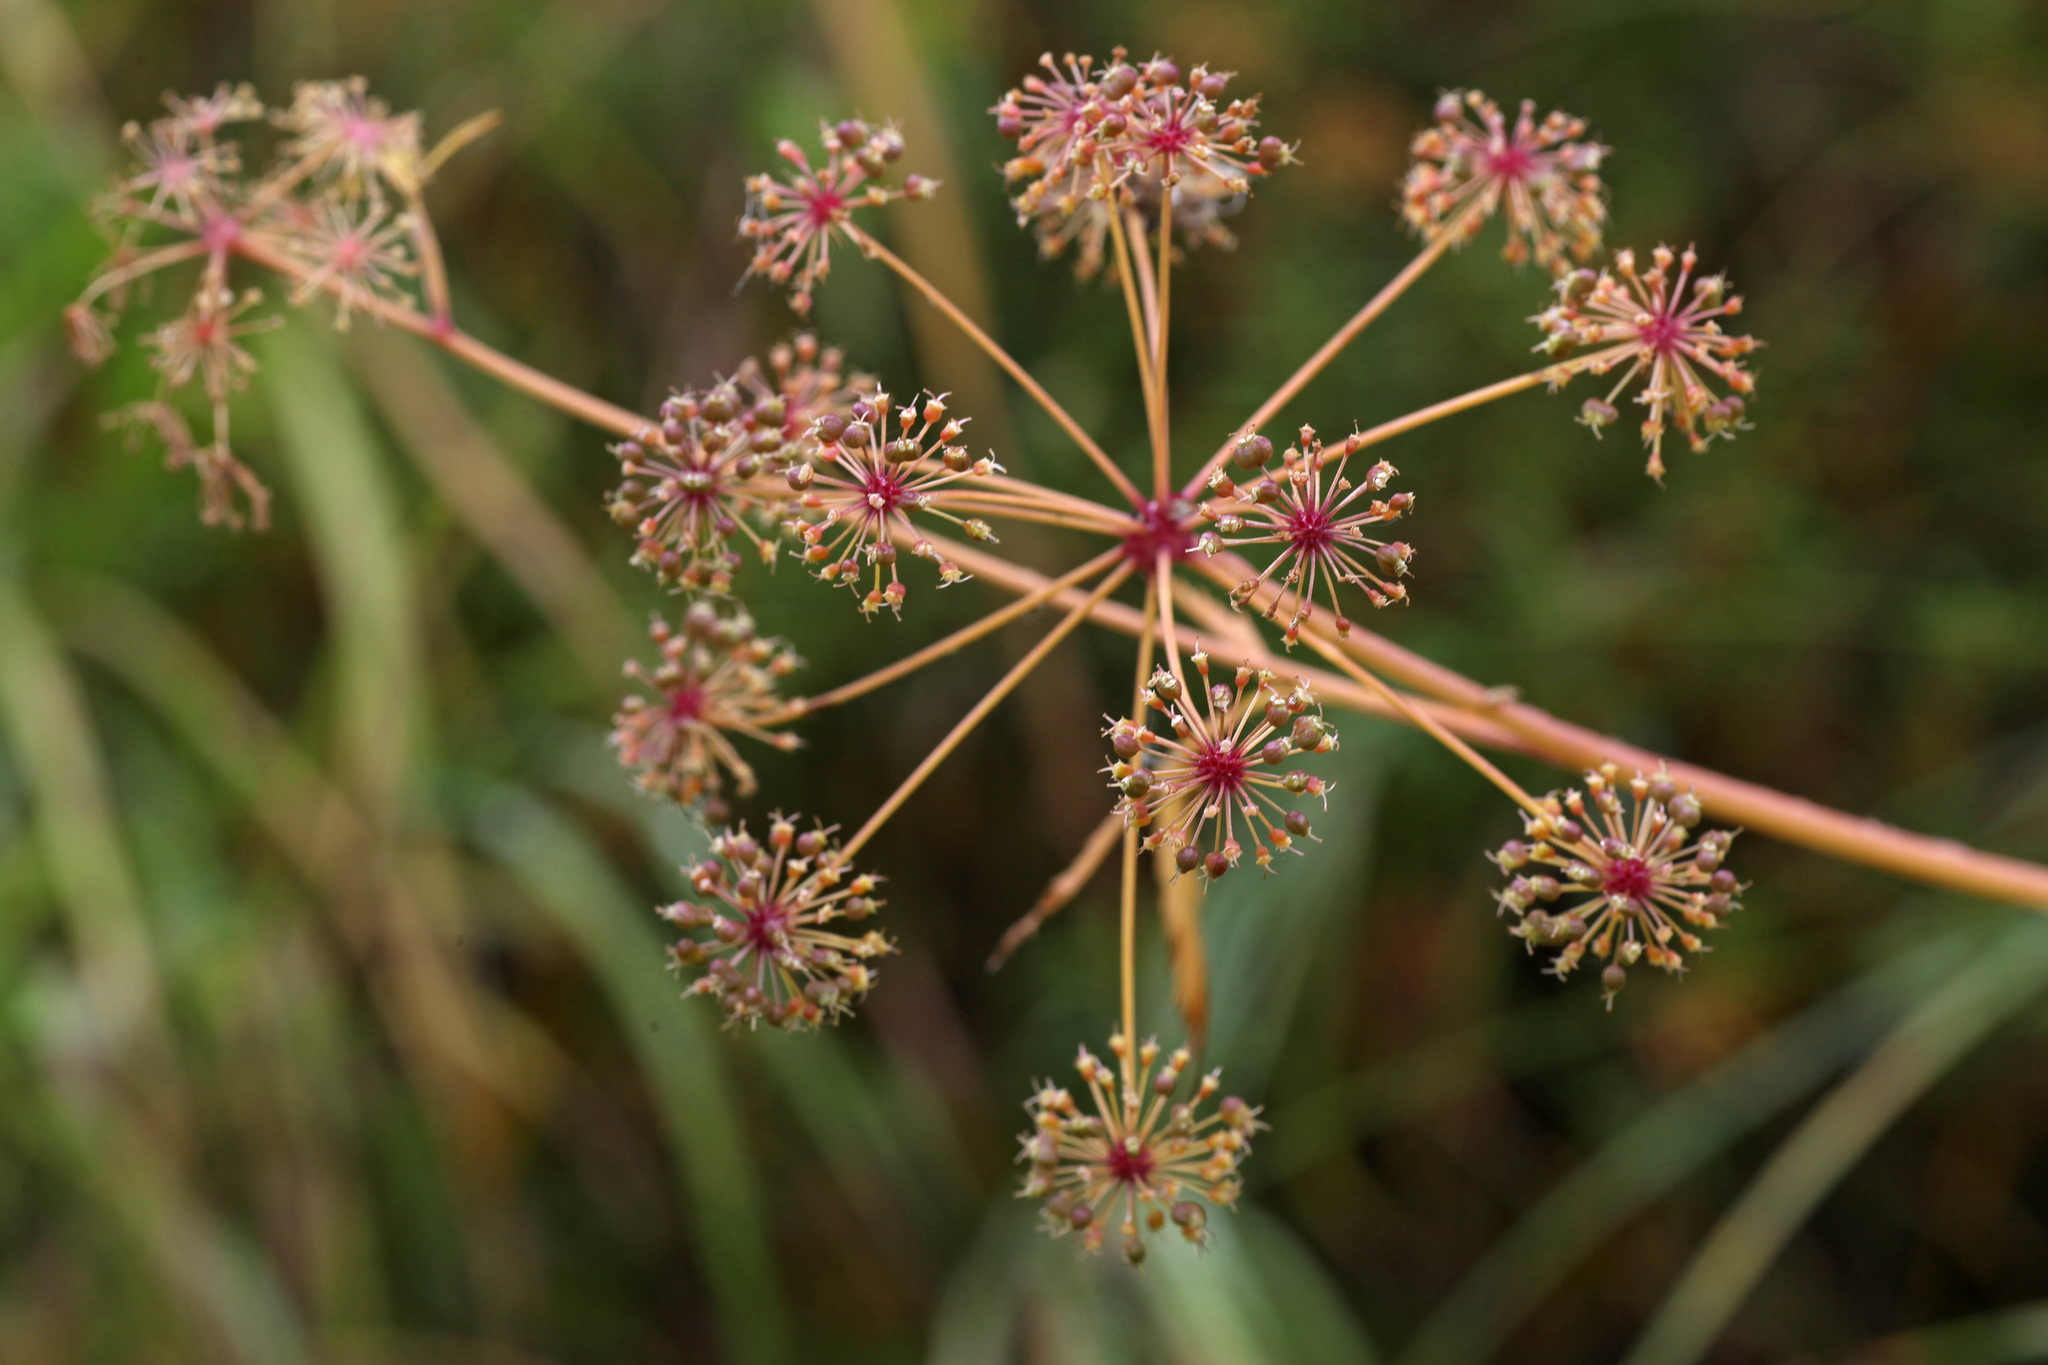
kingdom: Plantae
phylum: Tracheophyta
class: Magnoliopsida
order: Apiales
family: Apiaceae
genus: Cicuta
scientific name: Cicuta virosa
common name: Cowbane
